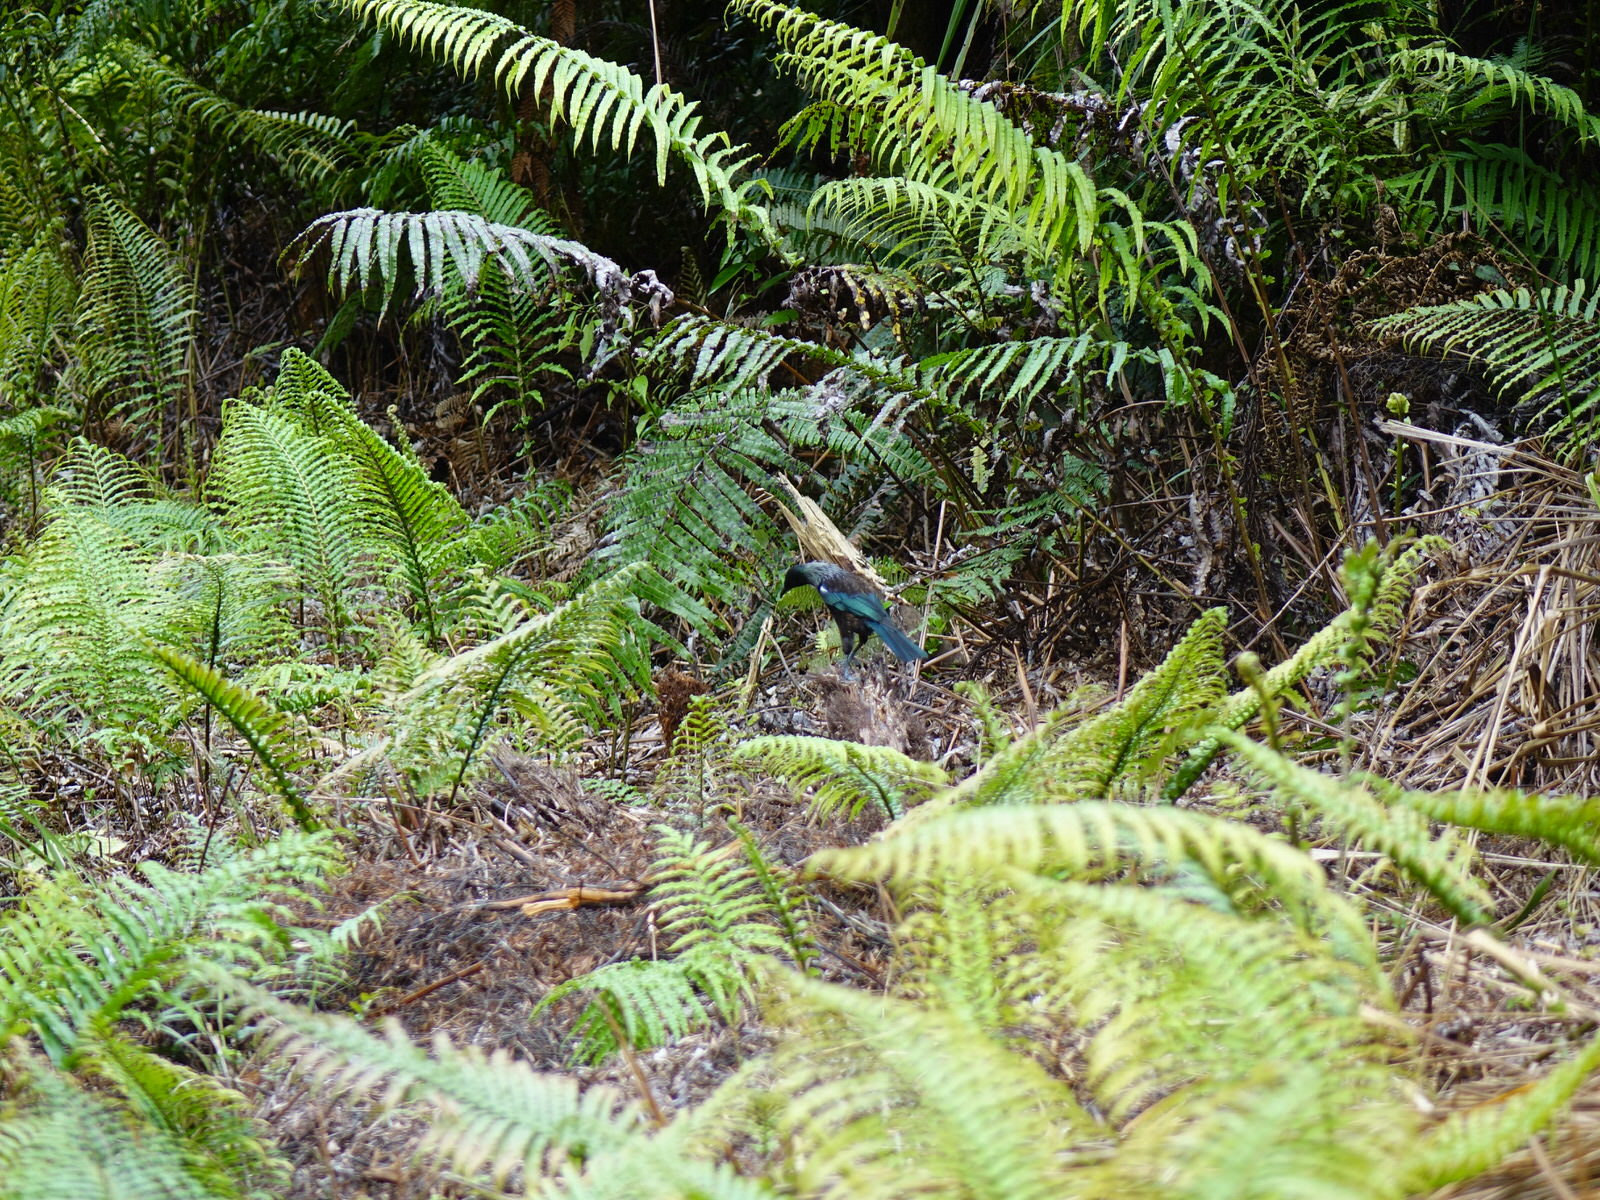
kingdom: Animalia
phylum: Chordata
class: Aves
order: Passeriformes
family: Meliphagidae
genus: Prosthemadera
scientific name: Prosthemadera novaeseelandiae
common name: Tui
